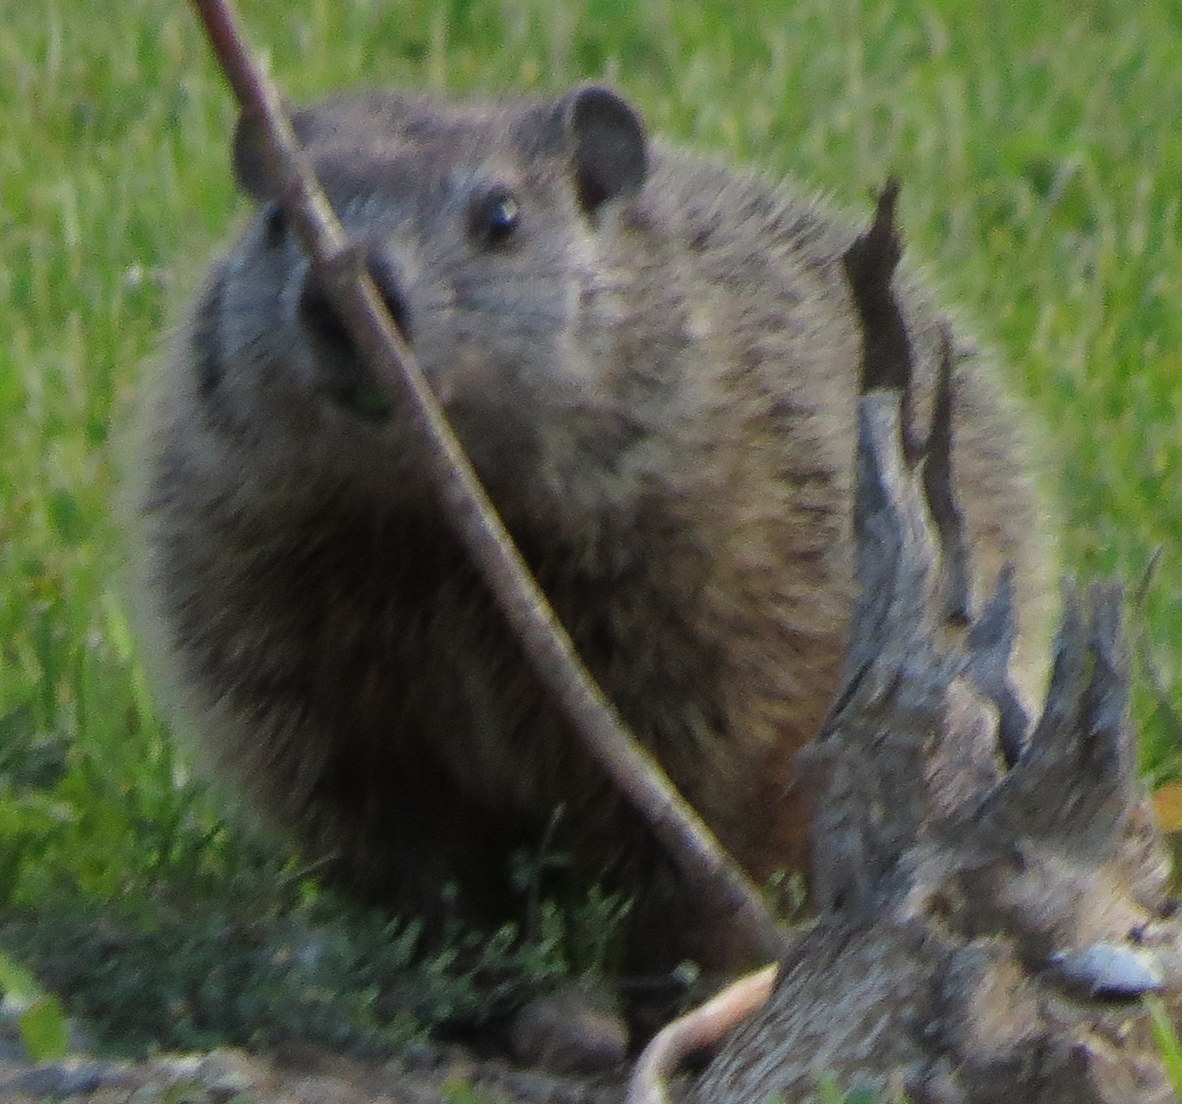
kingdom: Animalia
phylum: Chordata
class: Mammalia
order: Rodentia
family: Sciuridae
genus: Marmota
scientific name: Marmota monax
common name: Groundhog
